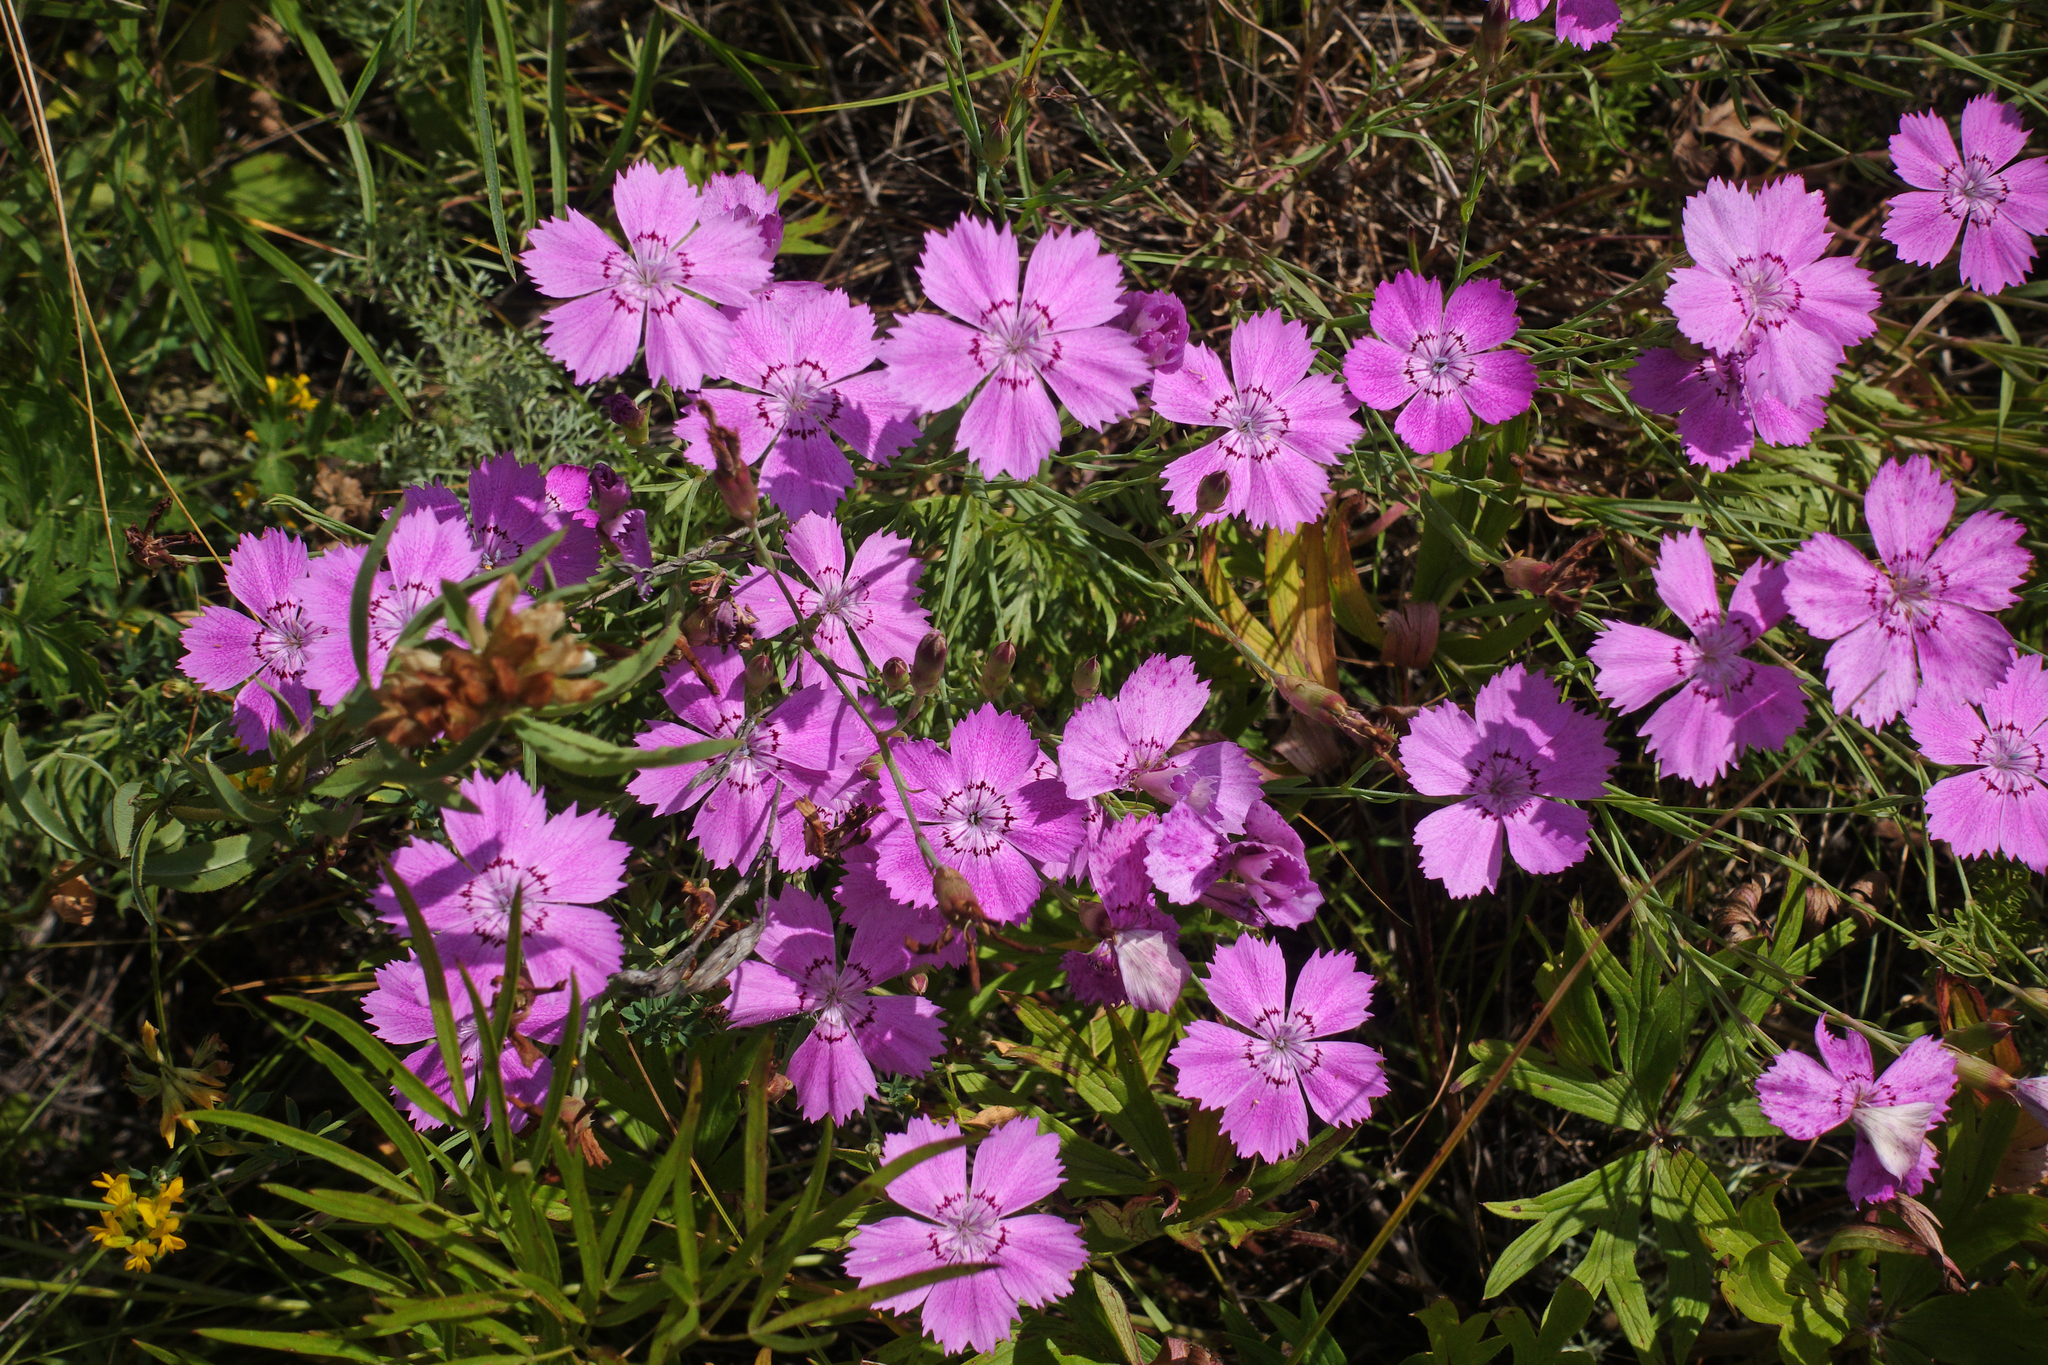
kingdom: Plantae
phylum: Tracheophyta
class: Magnoliopsida
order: Caryophyllales
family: Caryophyllaceae
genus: Dianthus
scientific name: Dianthus chinensis
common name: Rainbow pink
